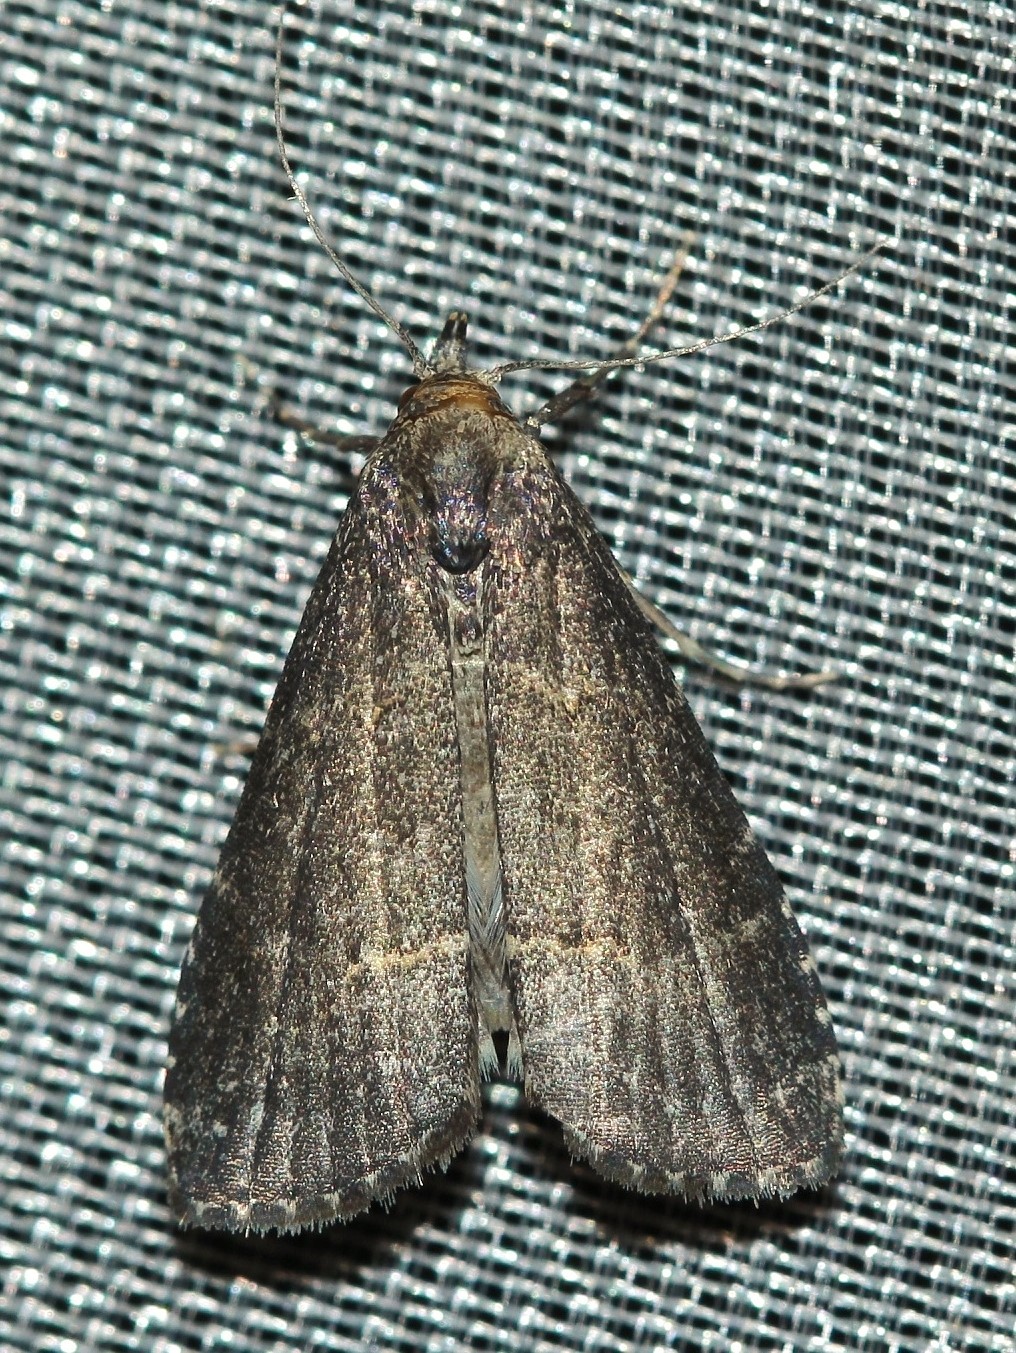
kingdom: Animalia
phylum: Arthropoda
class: Insecta
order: Lepidoptera
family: Erebidae
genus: Schrankia
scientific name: Schrankia balneorum
